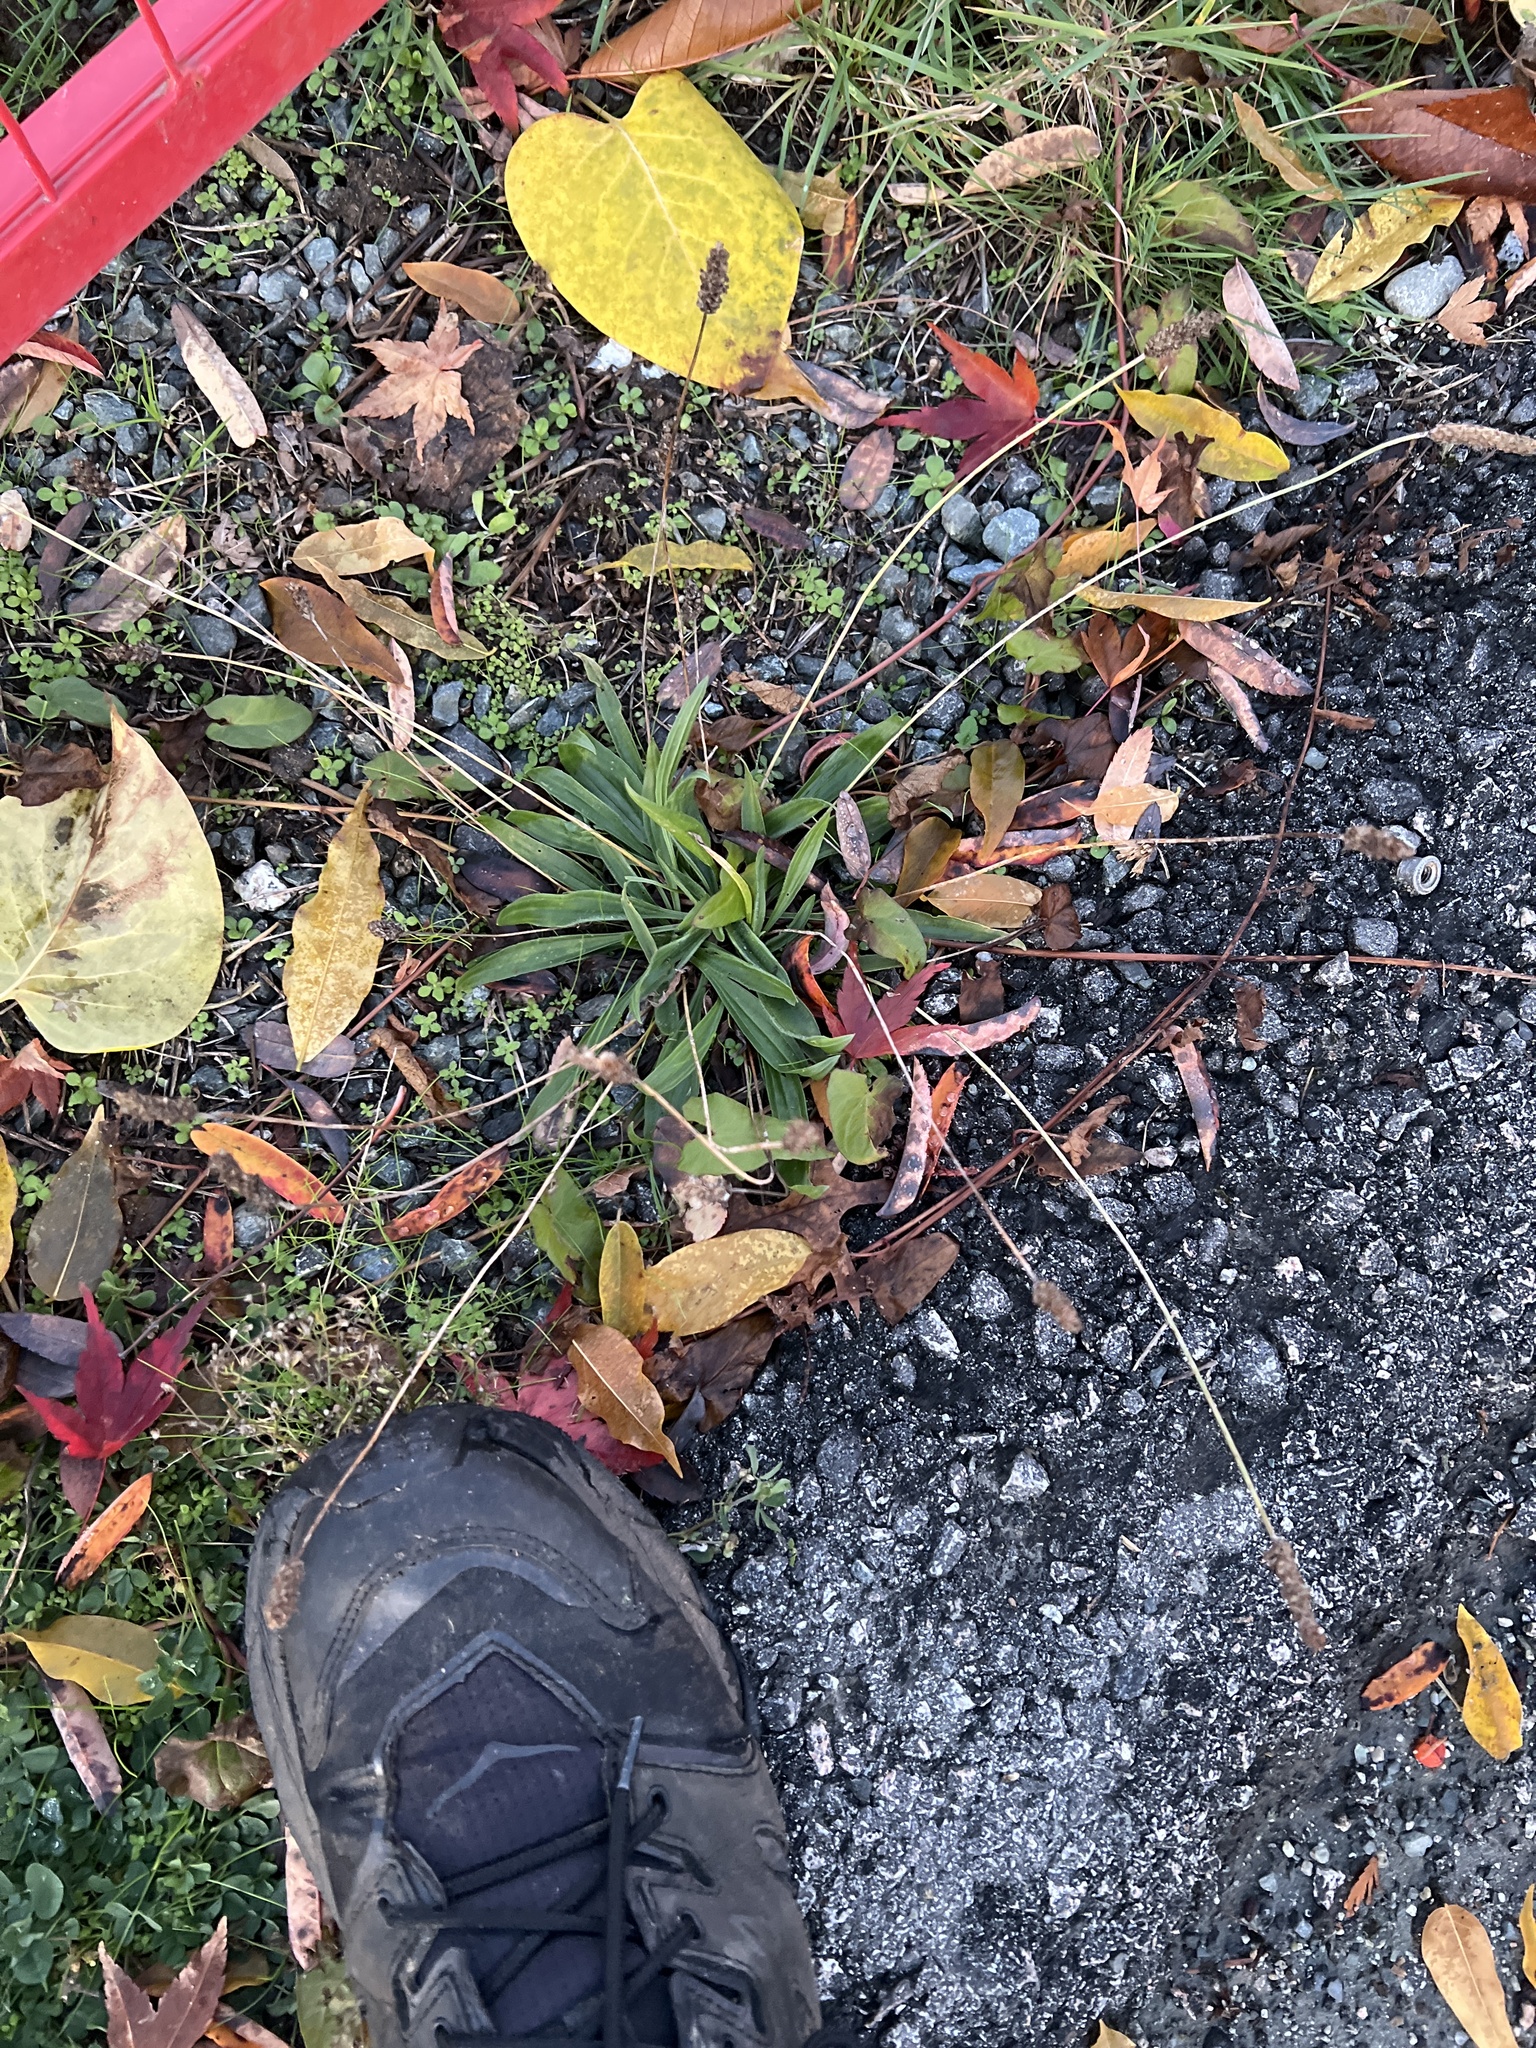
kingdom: Plantae
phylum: Tracheophyta
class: Magnoliopsida
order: Lamiales
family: Plantaginaceae
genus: Plantago
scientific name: Plantago lanceolata
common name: Ribwort plantain
